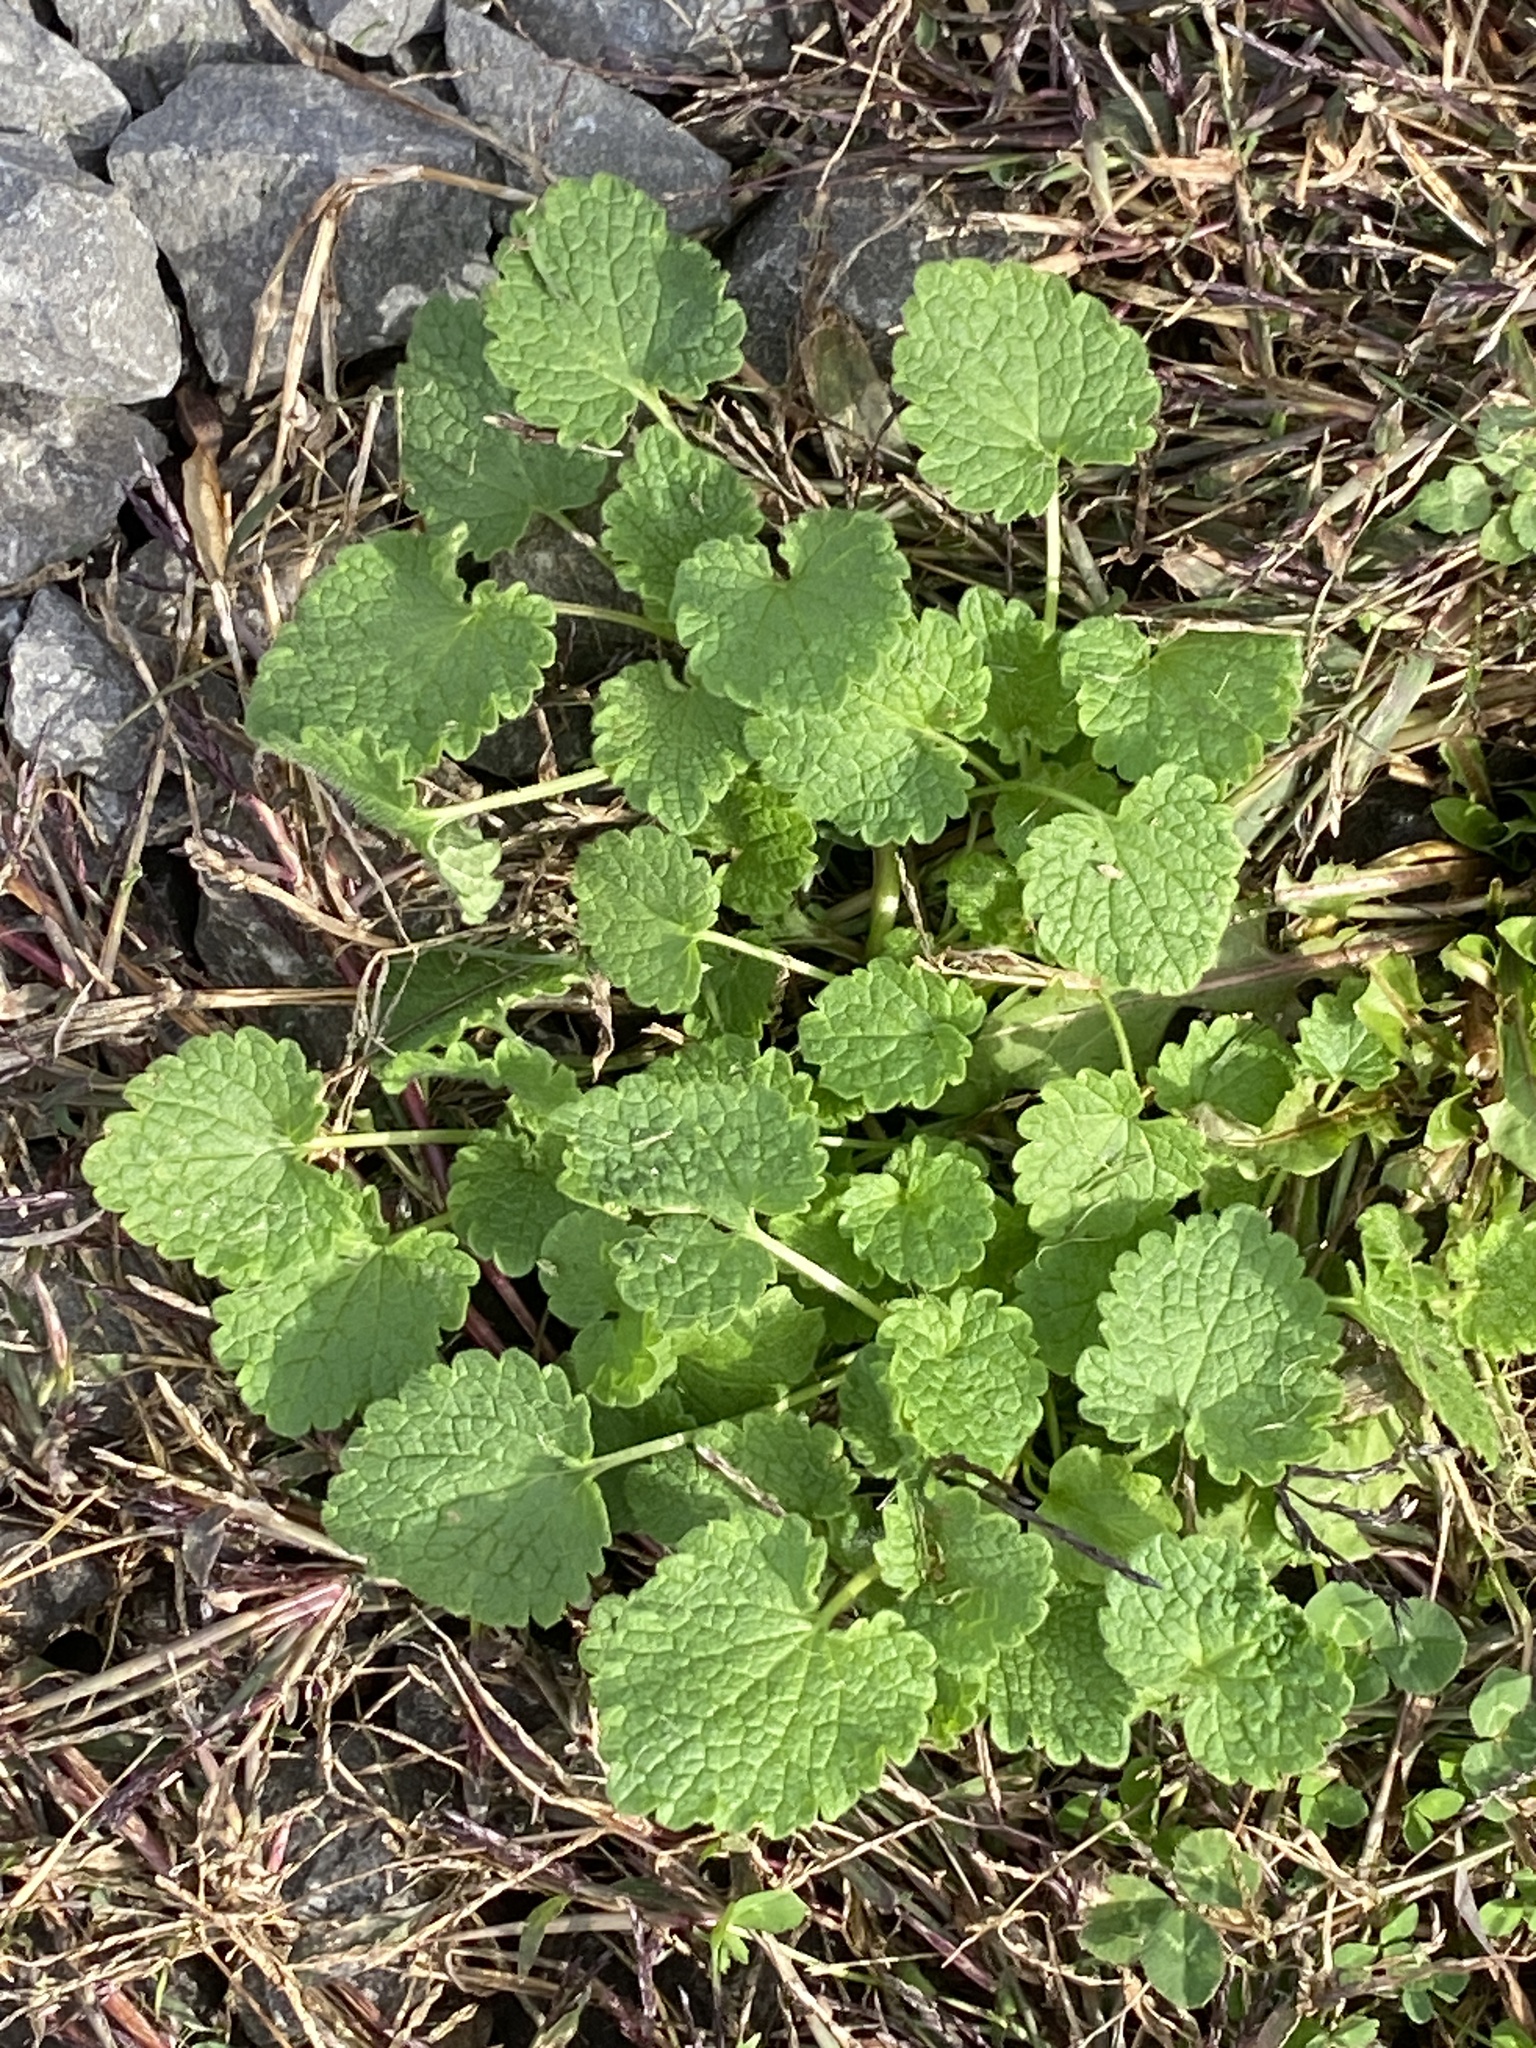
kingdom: Plantae
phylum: Tracheophyta
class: Magnoliopsida
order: Lamiales
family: Lamiaceae
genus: Lamium
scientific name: Lamium purpureum
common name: Red dead-nettle
